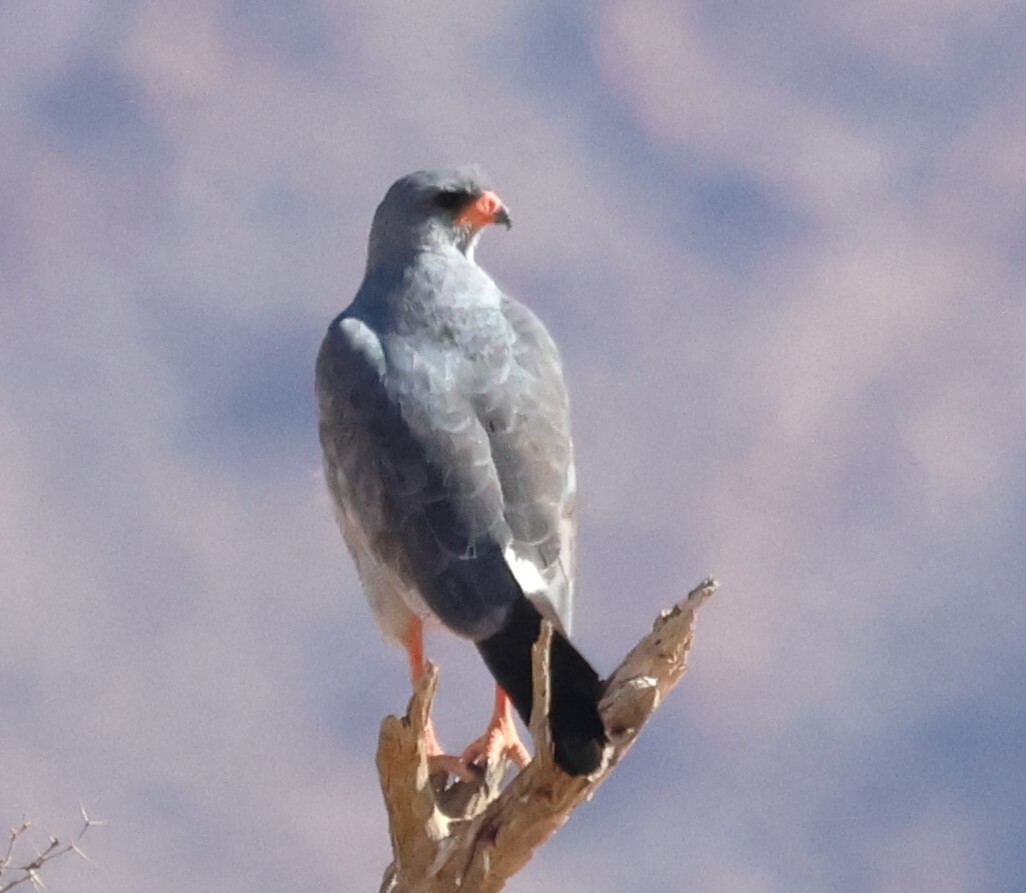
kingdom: Animalia
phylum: Chordata
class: Aves
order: Accipitriformes
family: Accipitridae
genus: Melierax
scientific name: Melierax canorus
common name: Pale chanting-goshawk
